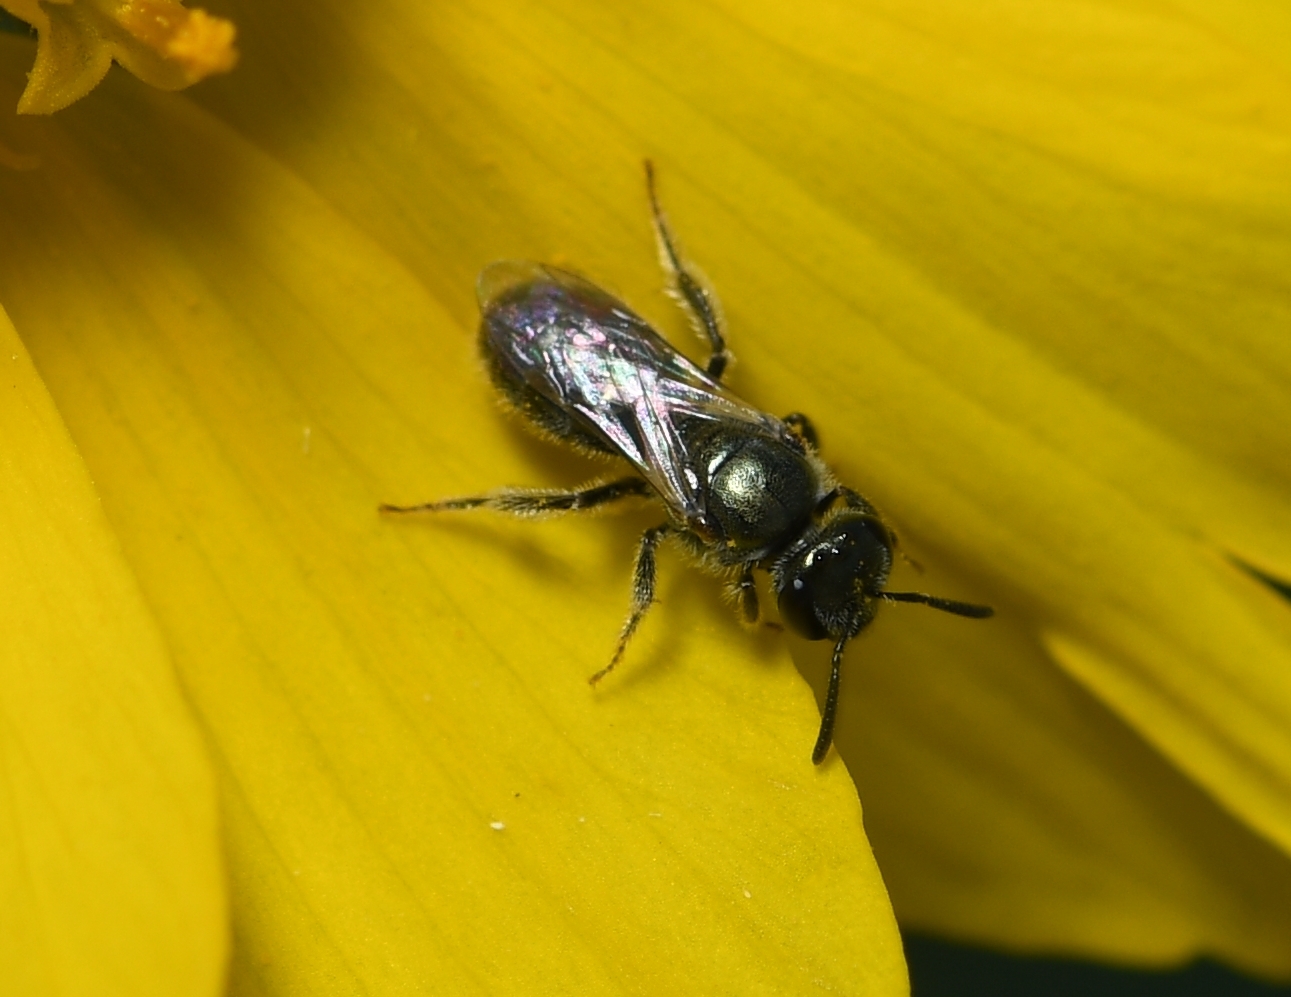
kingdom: Animalia
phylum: Arthropoda
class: Insecta
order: Hymenoptera
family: Halictidae
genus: Dialictus
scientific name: Dialictus
